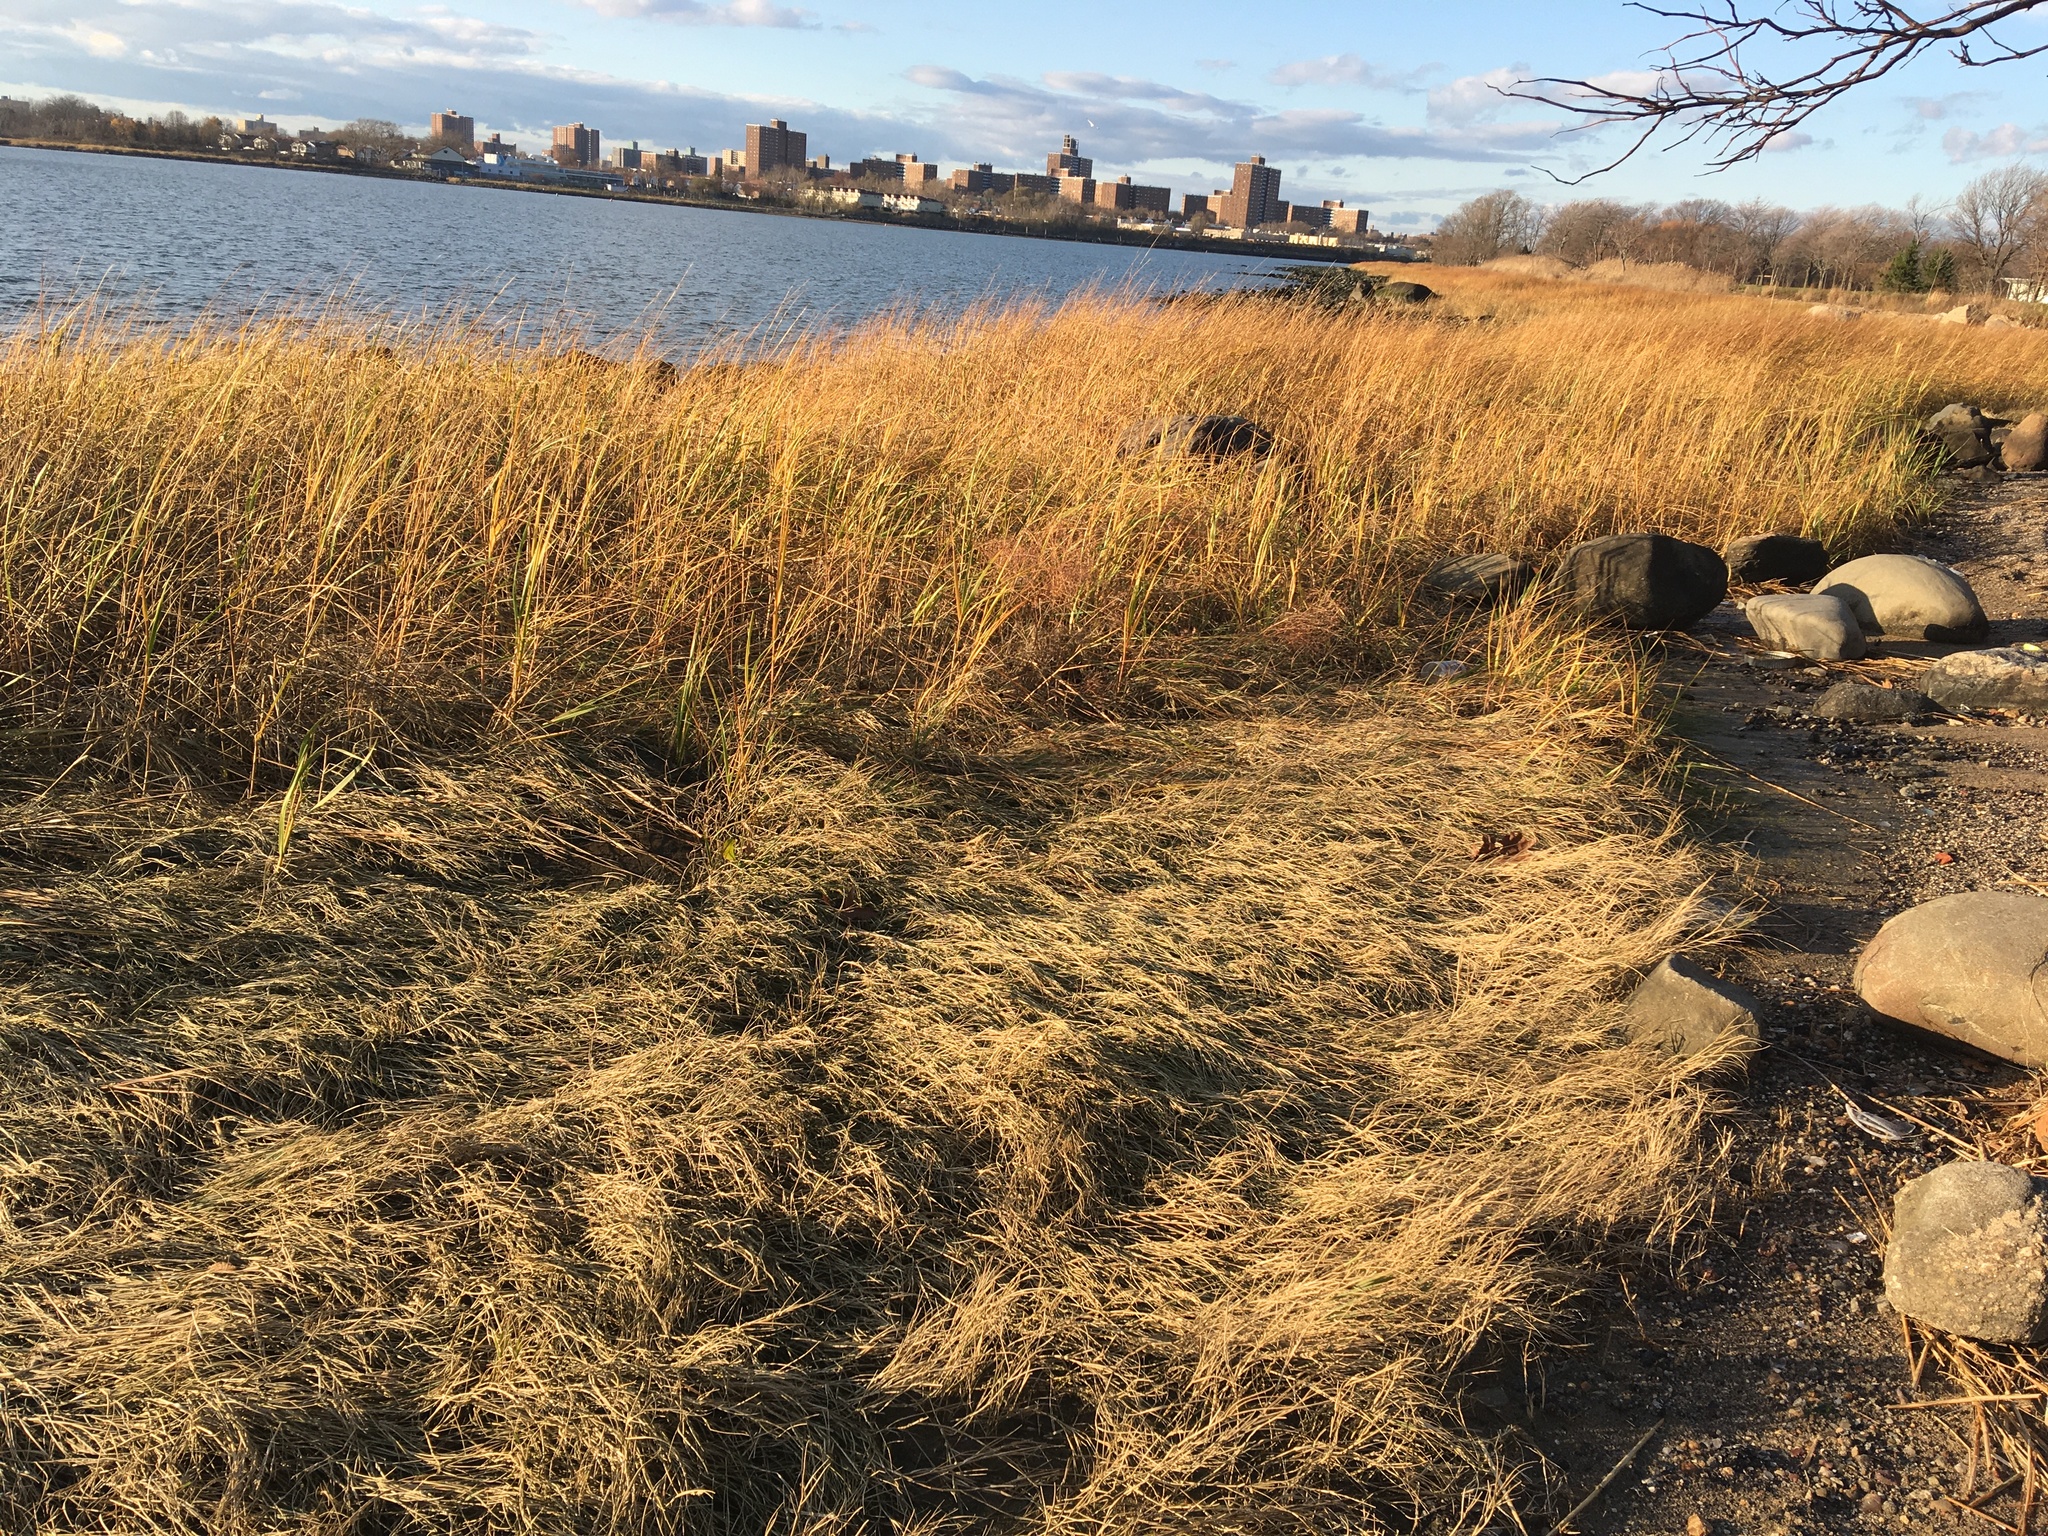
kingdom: Plantae
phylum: Tracheophyta
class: Liliopsida
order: Poales
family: Poaceae
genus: Sporobolus
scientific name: Sporobolus pumilus
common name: Highwater grass
